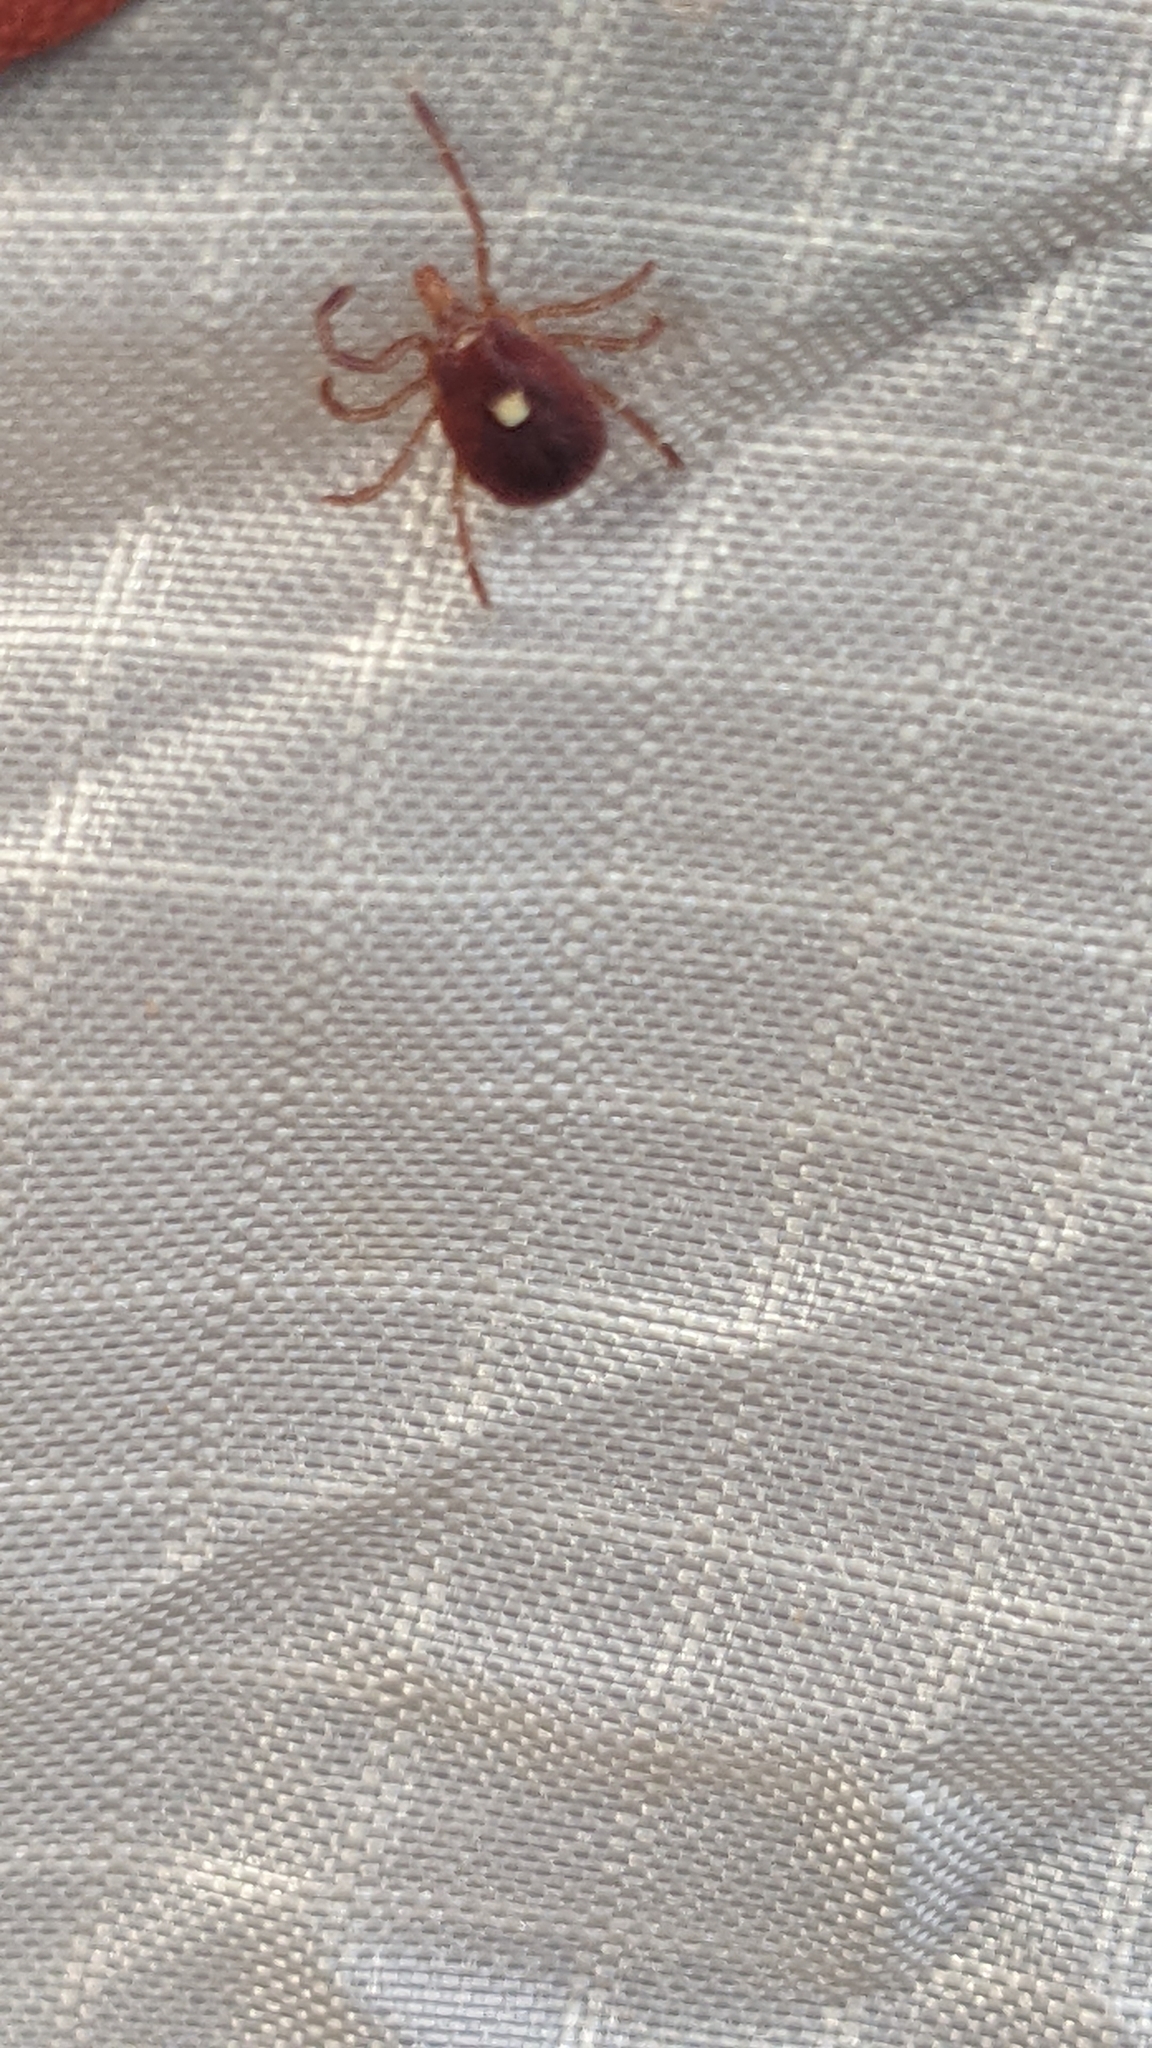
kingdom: Animalia
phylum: Arthropoda
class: Arachnida
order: Ixodida
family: Ixodidae
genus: Amblyomma
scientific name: Amblyomma americanum
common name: Lone star tick
